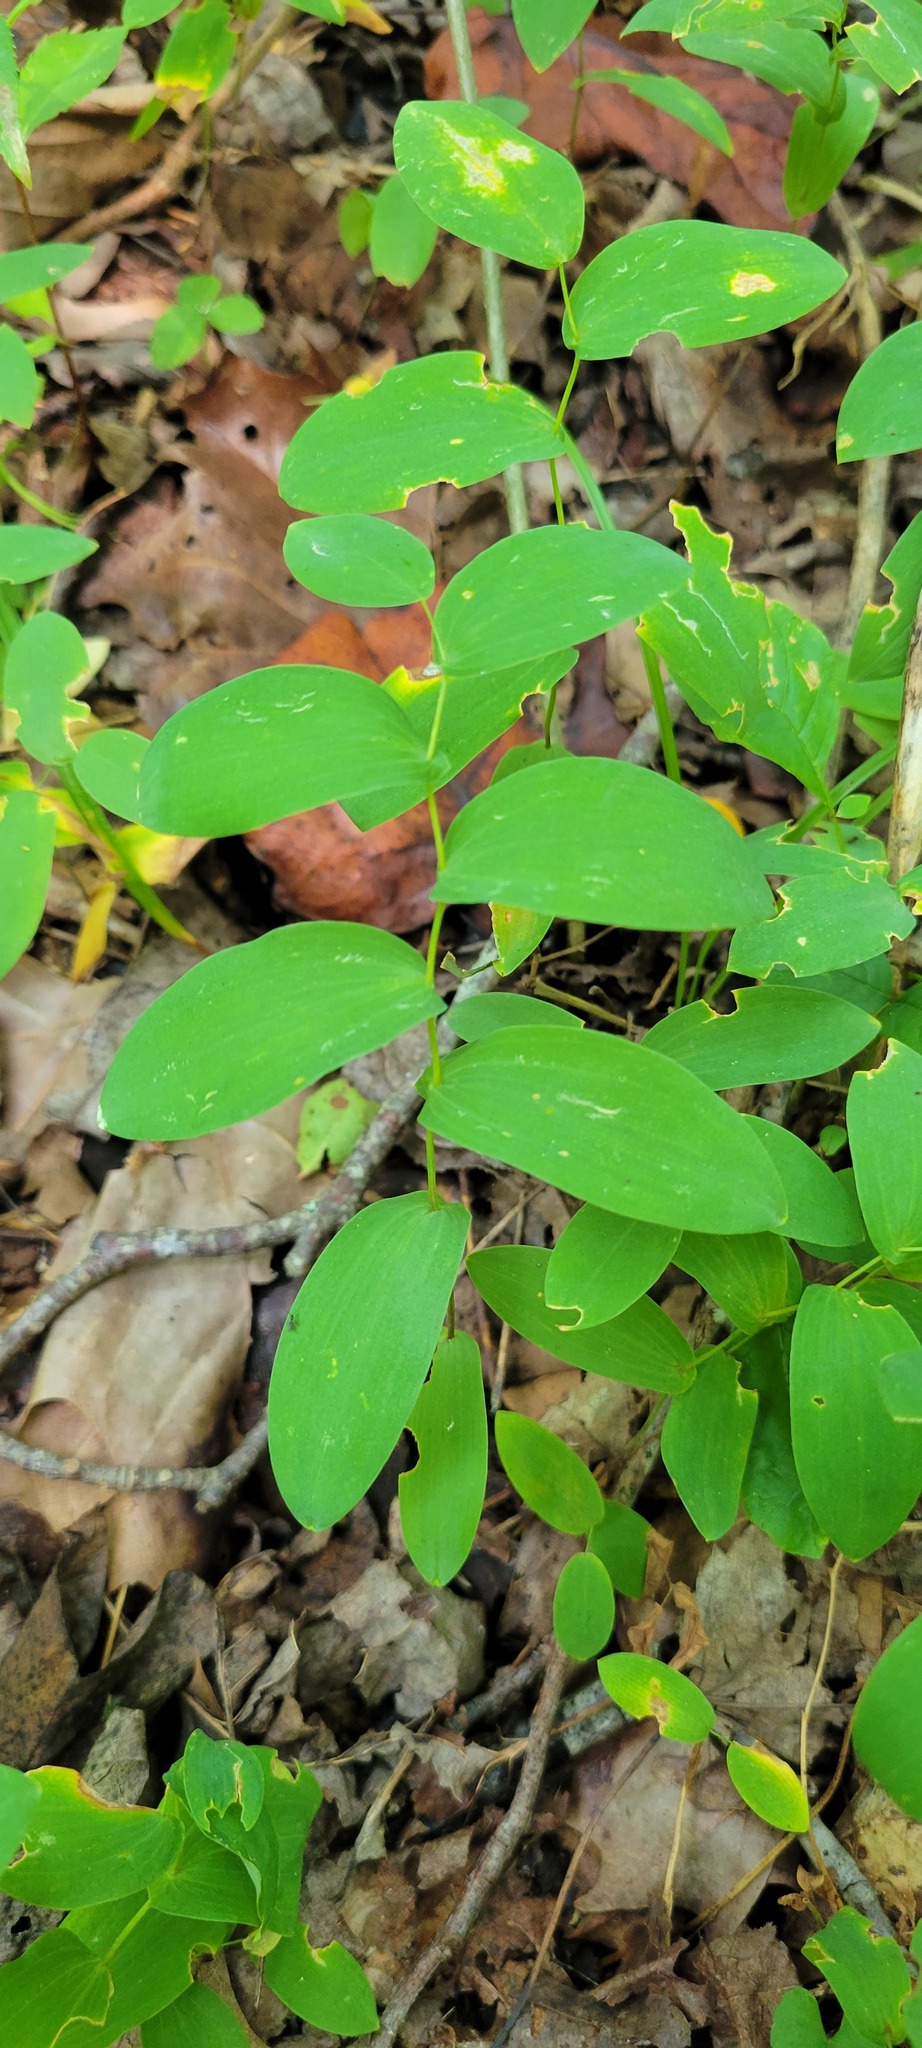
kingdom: Plantae
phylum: Tracheophyta
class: Liliopsida
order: Liliales
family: Colchicaceae
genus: Uvularia
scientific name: Uvularia perfoliata
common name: Perfoliate bellwort
